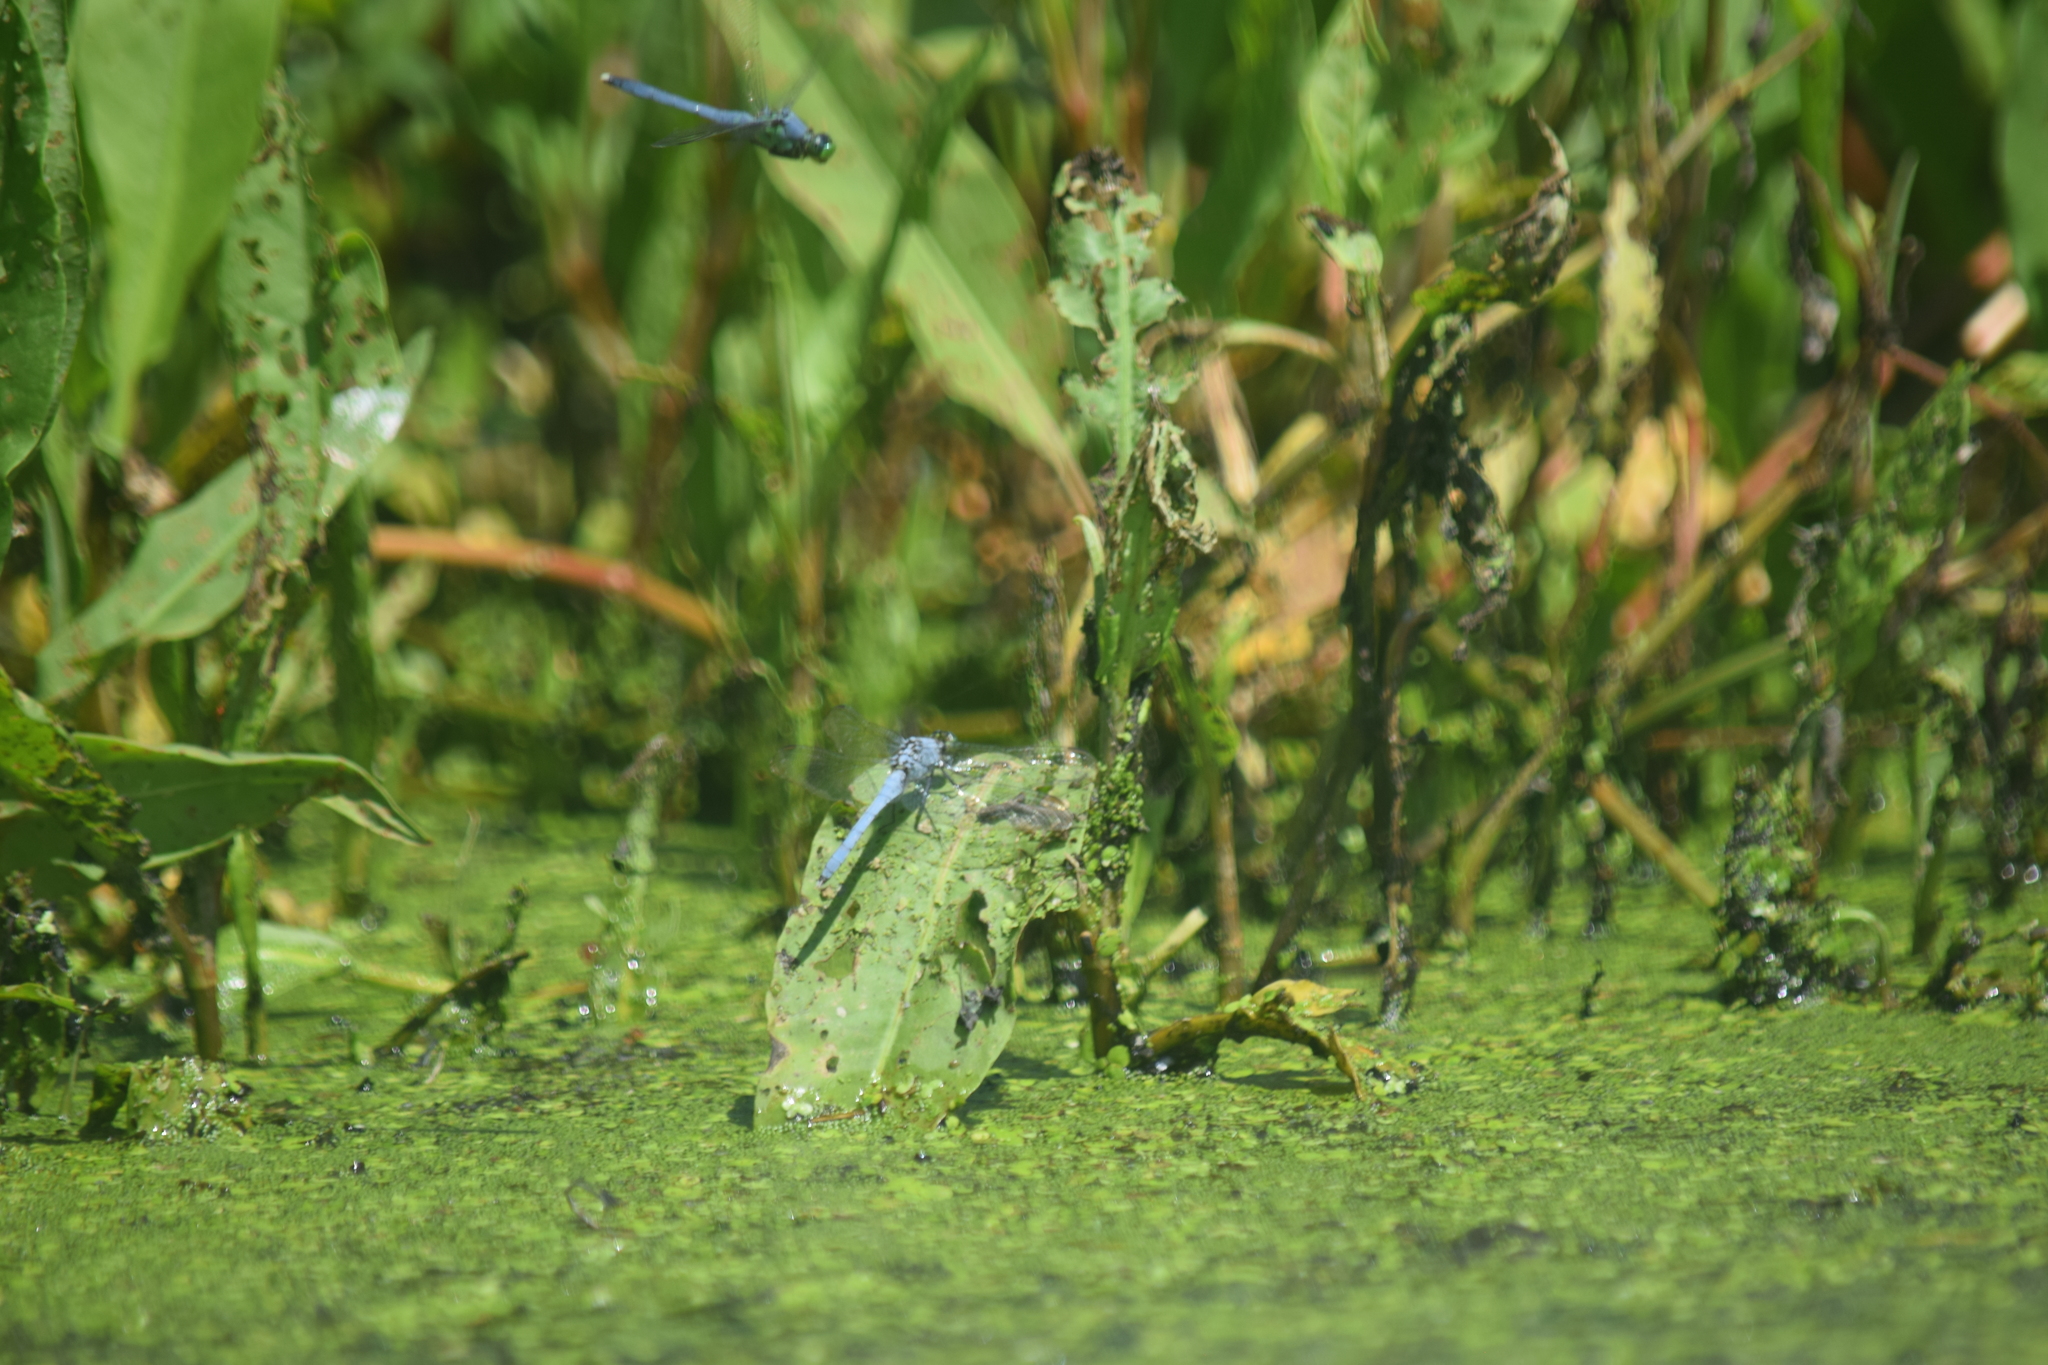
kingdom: Animalia
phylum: Arthropoda
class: Insecta
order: Odonata
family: Libellulidae
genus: Erythemis
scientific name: Erythemis simplicicollis
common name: Eastern pondhawk
